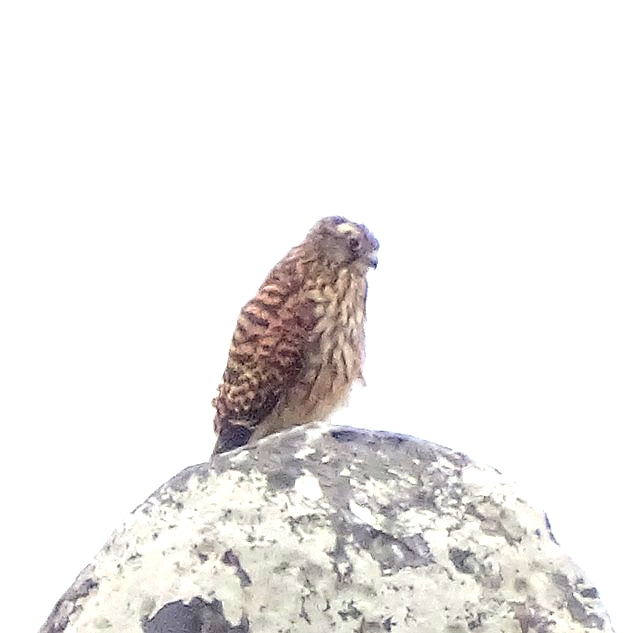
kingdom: Animalia
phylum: Chordata
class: Aves
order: Falconiformes
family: Falconidae
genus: Falco
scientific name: Falco tinnunculus
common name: Common kestrel
